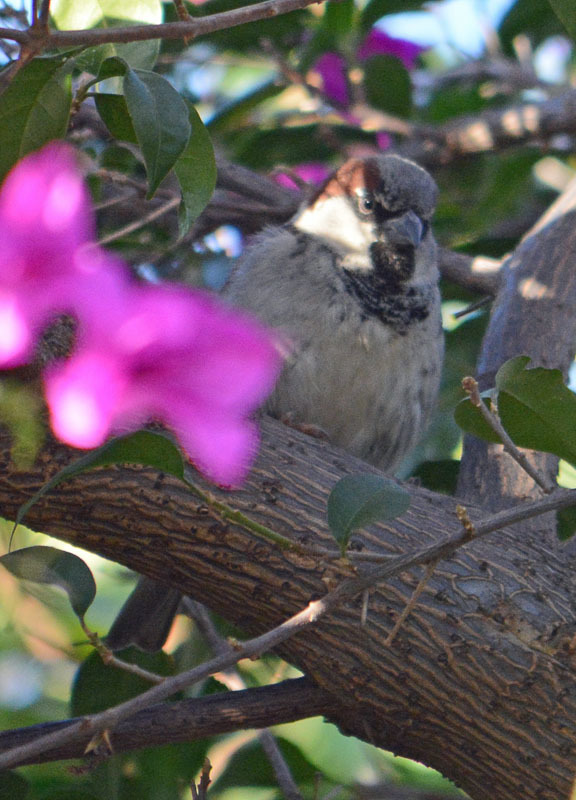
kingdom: Animalia
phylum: Chordata
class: Aves
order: Passeriformes
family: Passeridae
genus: Passer
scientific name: Passer domesticus
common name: House sparrow
